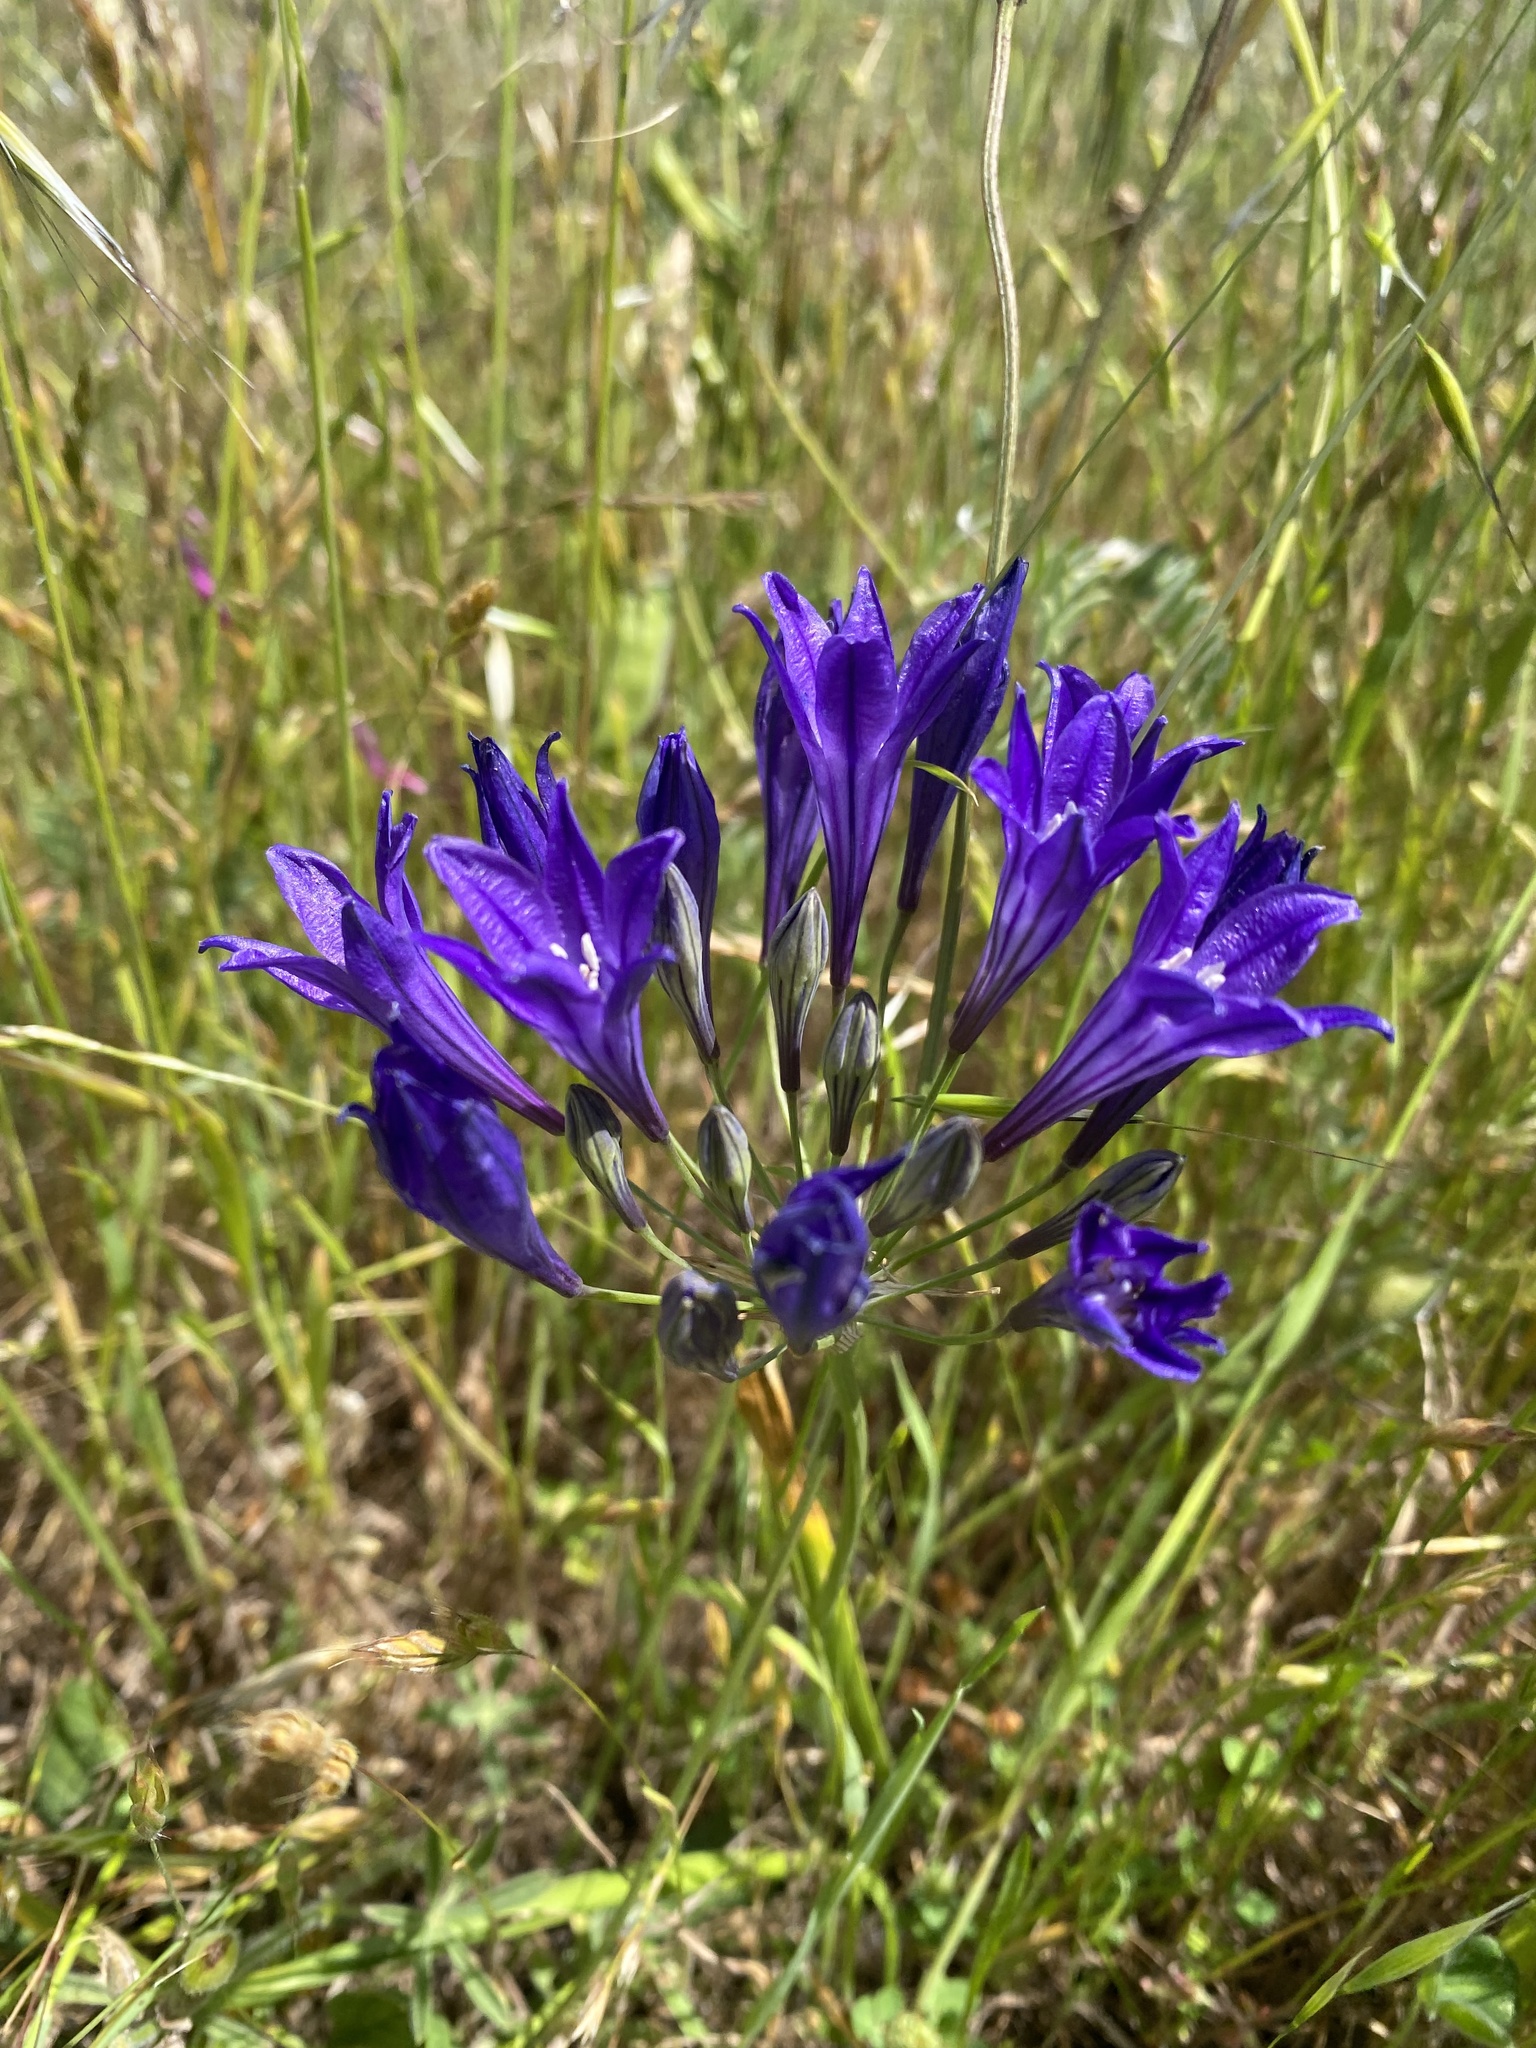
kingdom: Plantae
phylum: Tracheophyta
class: Liliopsida
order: Asparagales
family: Asparagaceae
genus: Triteleia
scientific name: Triteleia laxa
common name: Triplet-lily
